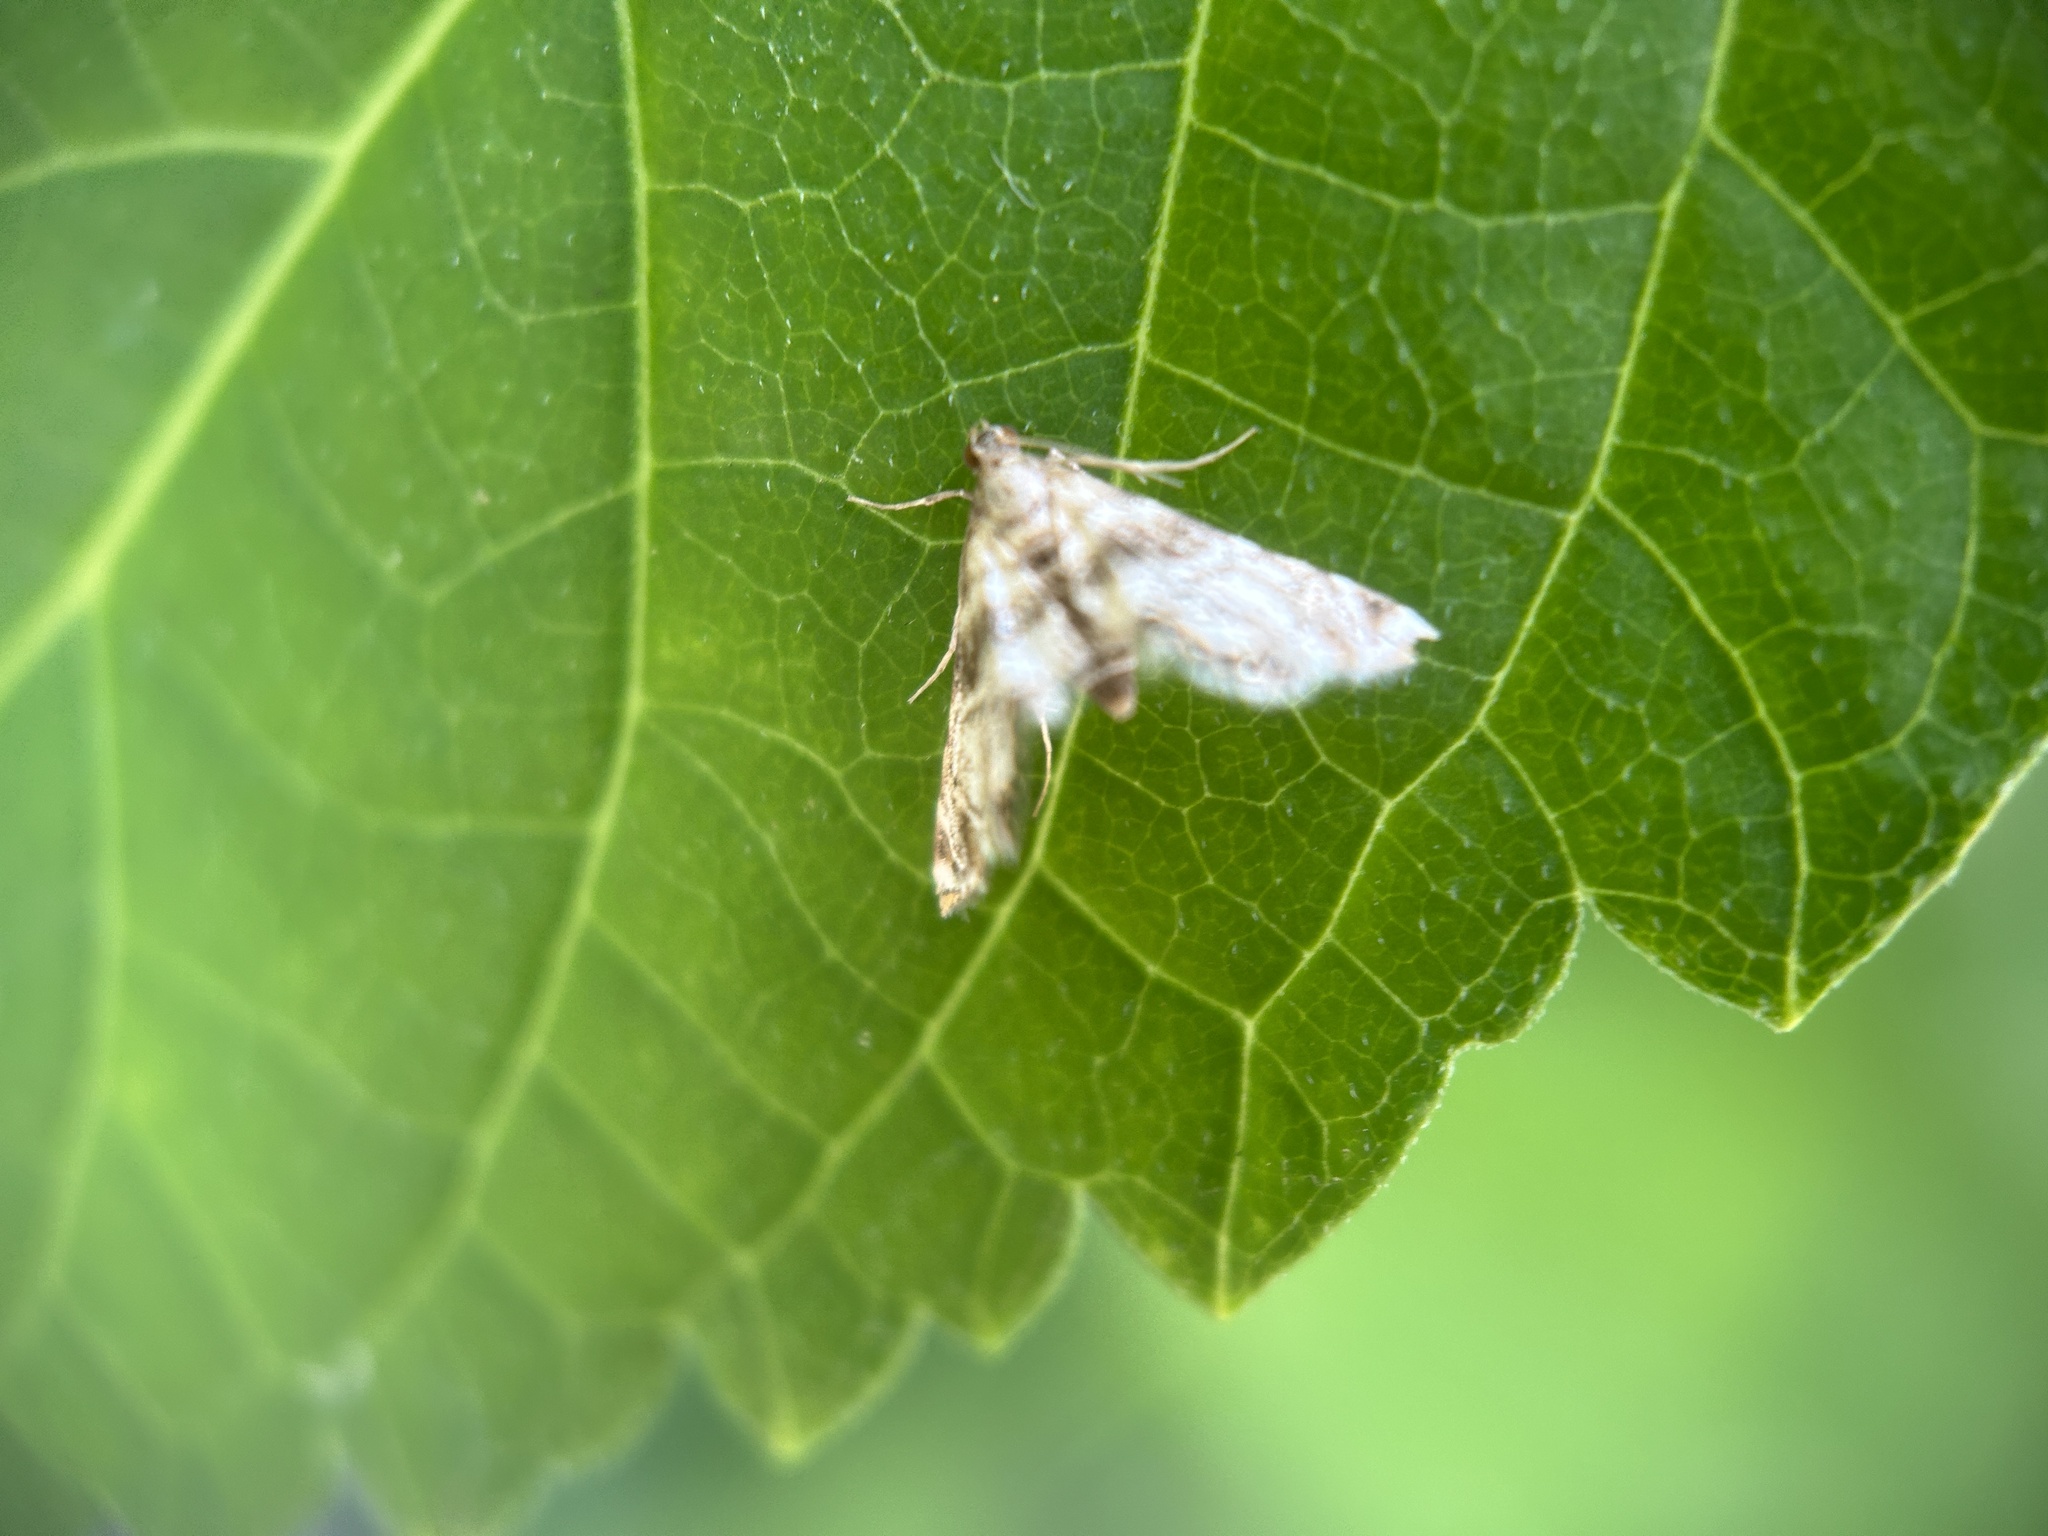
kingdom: Animalia
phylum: Arthropoda
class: Insecta
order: Lepidoptera
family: Crambidae
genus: Petrophila
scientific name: Petrophila canadensis
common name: Canadian petrophila
